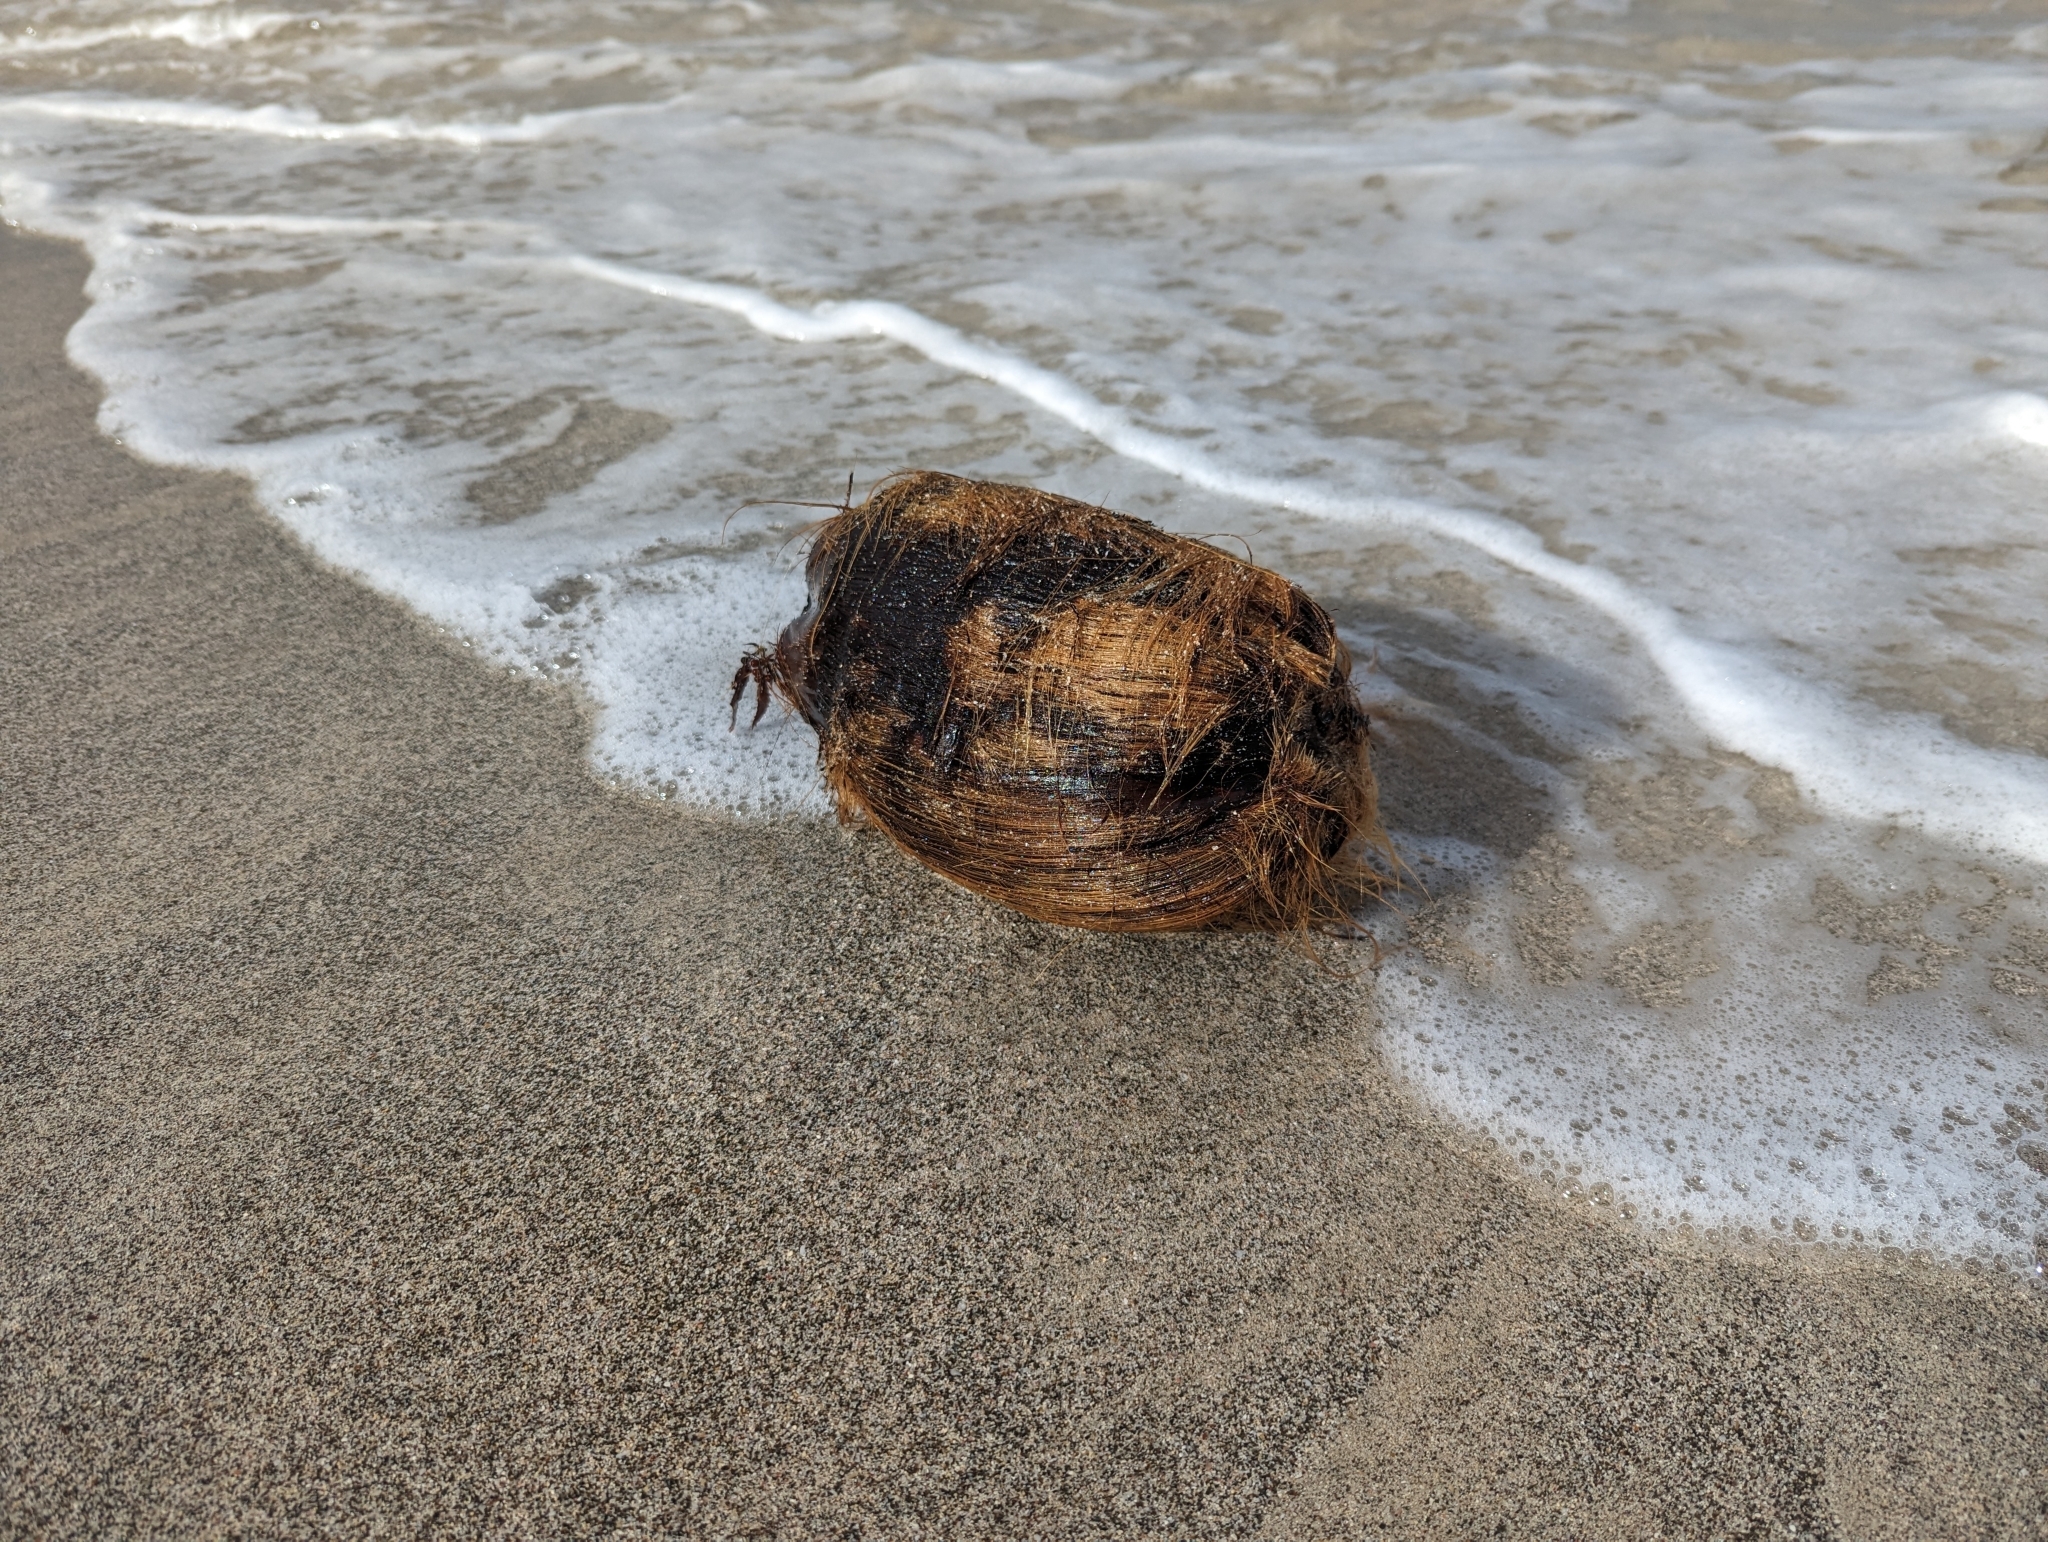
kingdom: Plantae
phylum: Tracheophyta
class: Liliopsida
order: Arecales
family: Arecaceae
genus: Cocos
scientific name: Cocos nucifera
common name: Coconut palm
